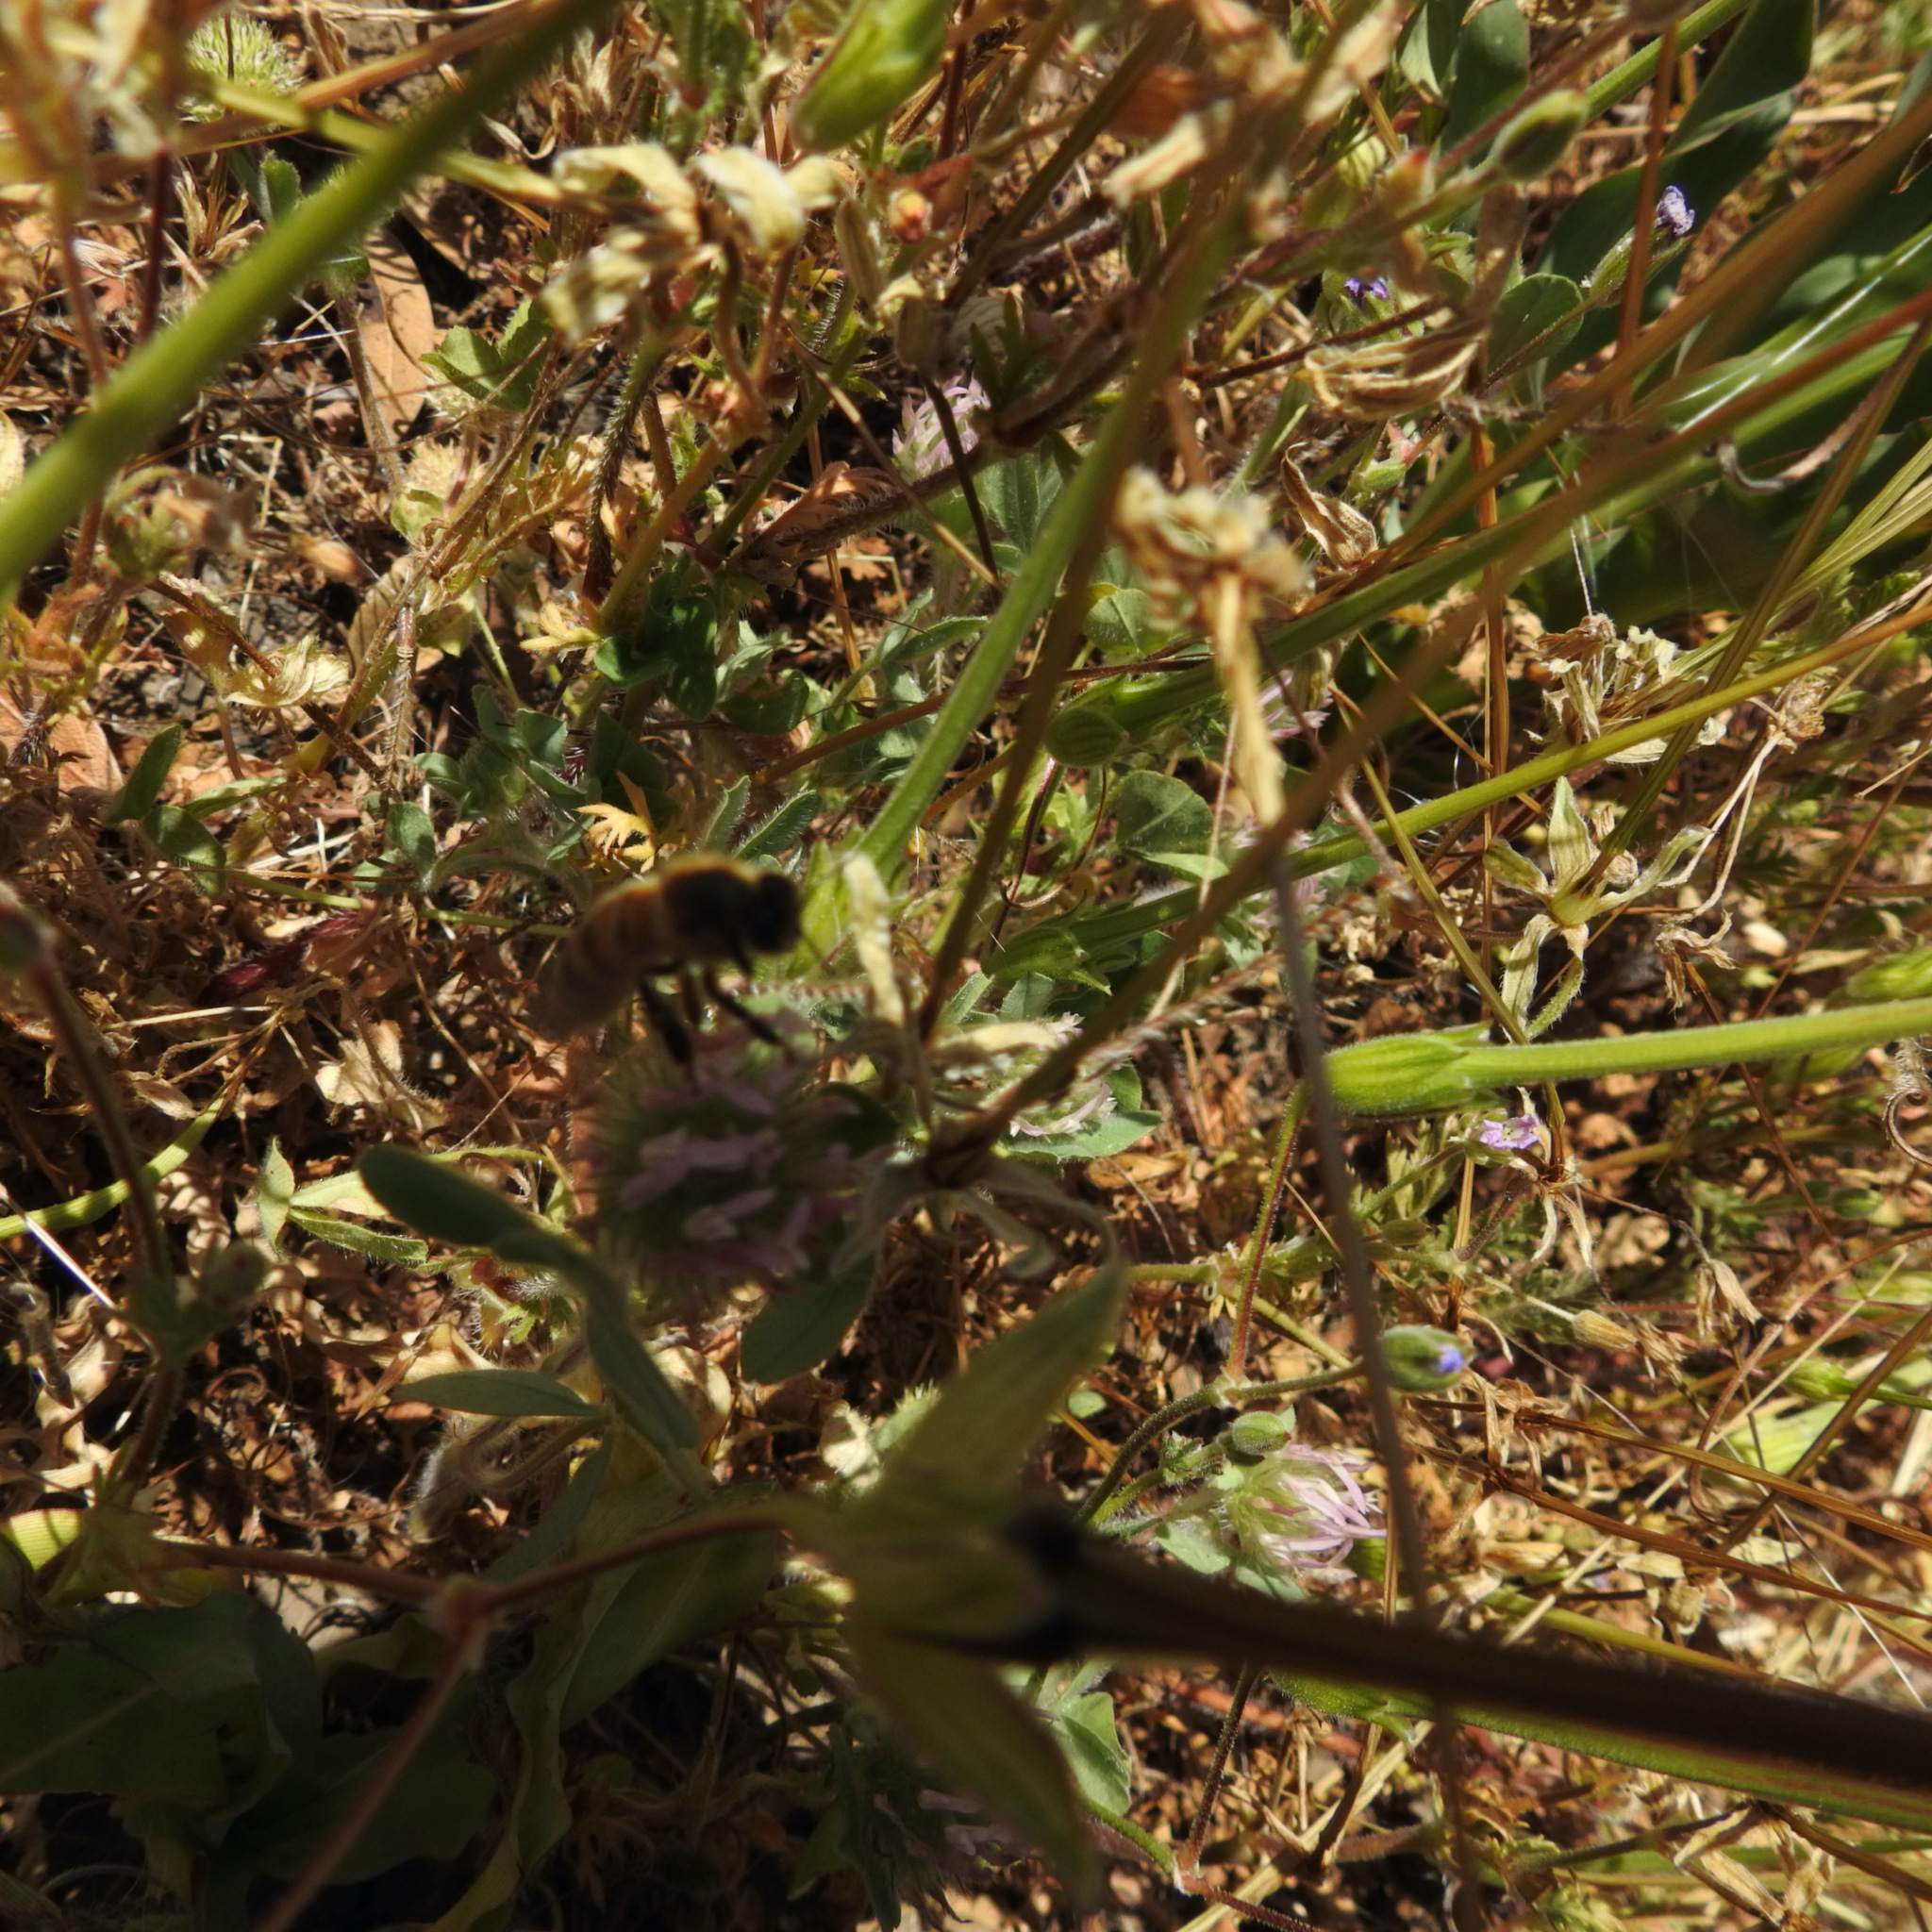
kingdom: Animalia
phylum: Arthropoda
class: Insecta
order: Hymenoptera
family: Apidae
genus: Apis
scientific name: Apis mellifera
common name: Honey bee
